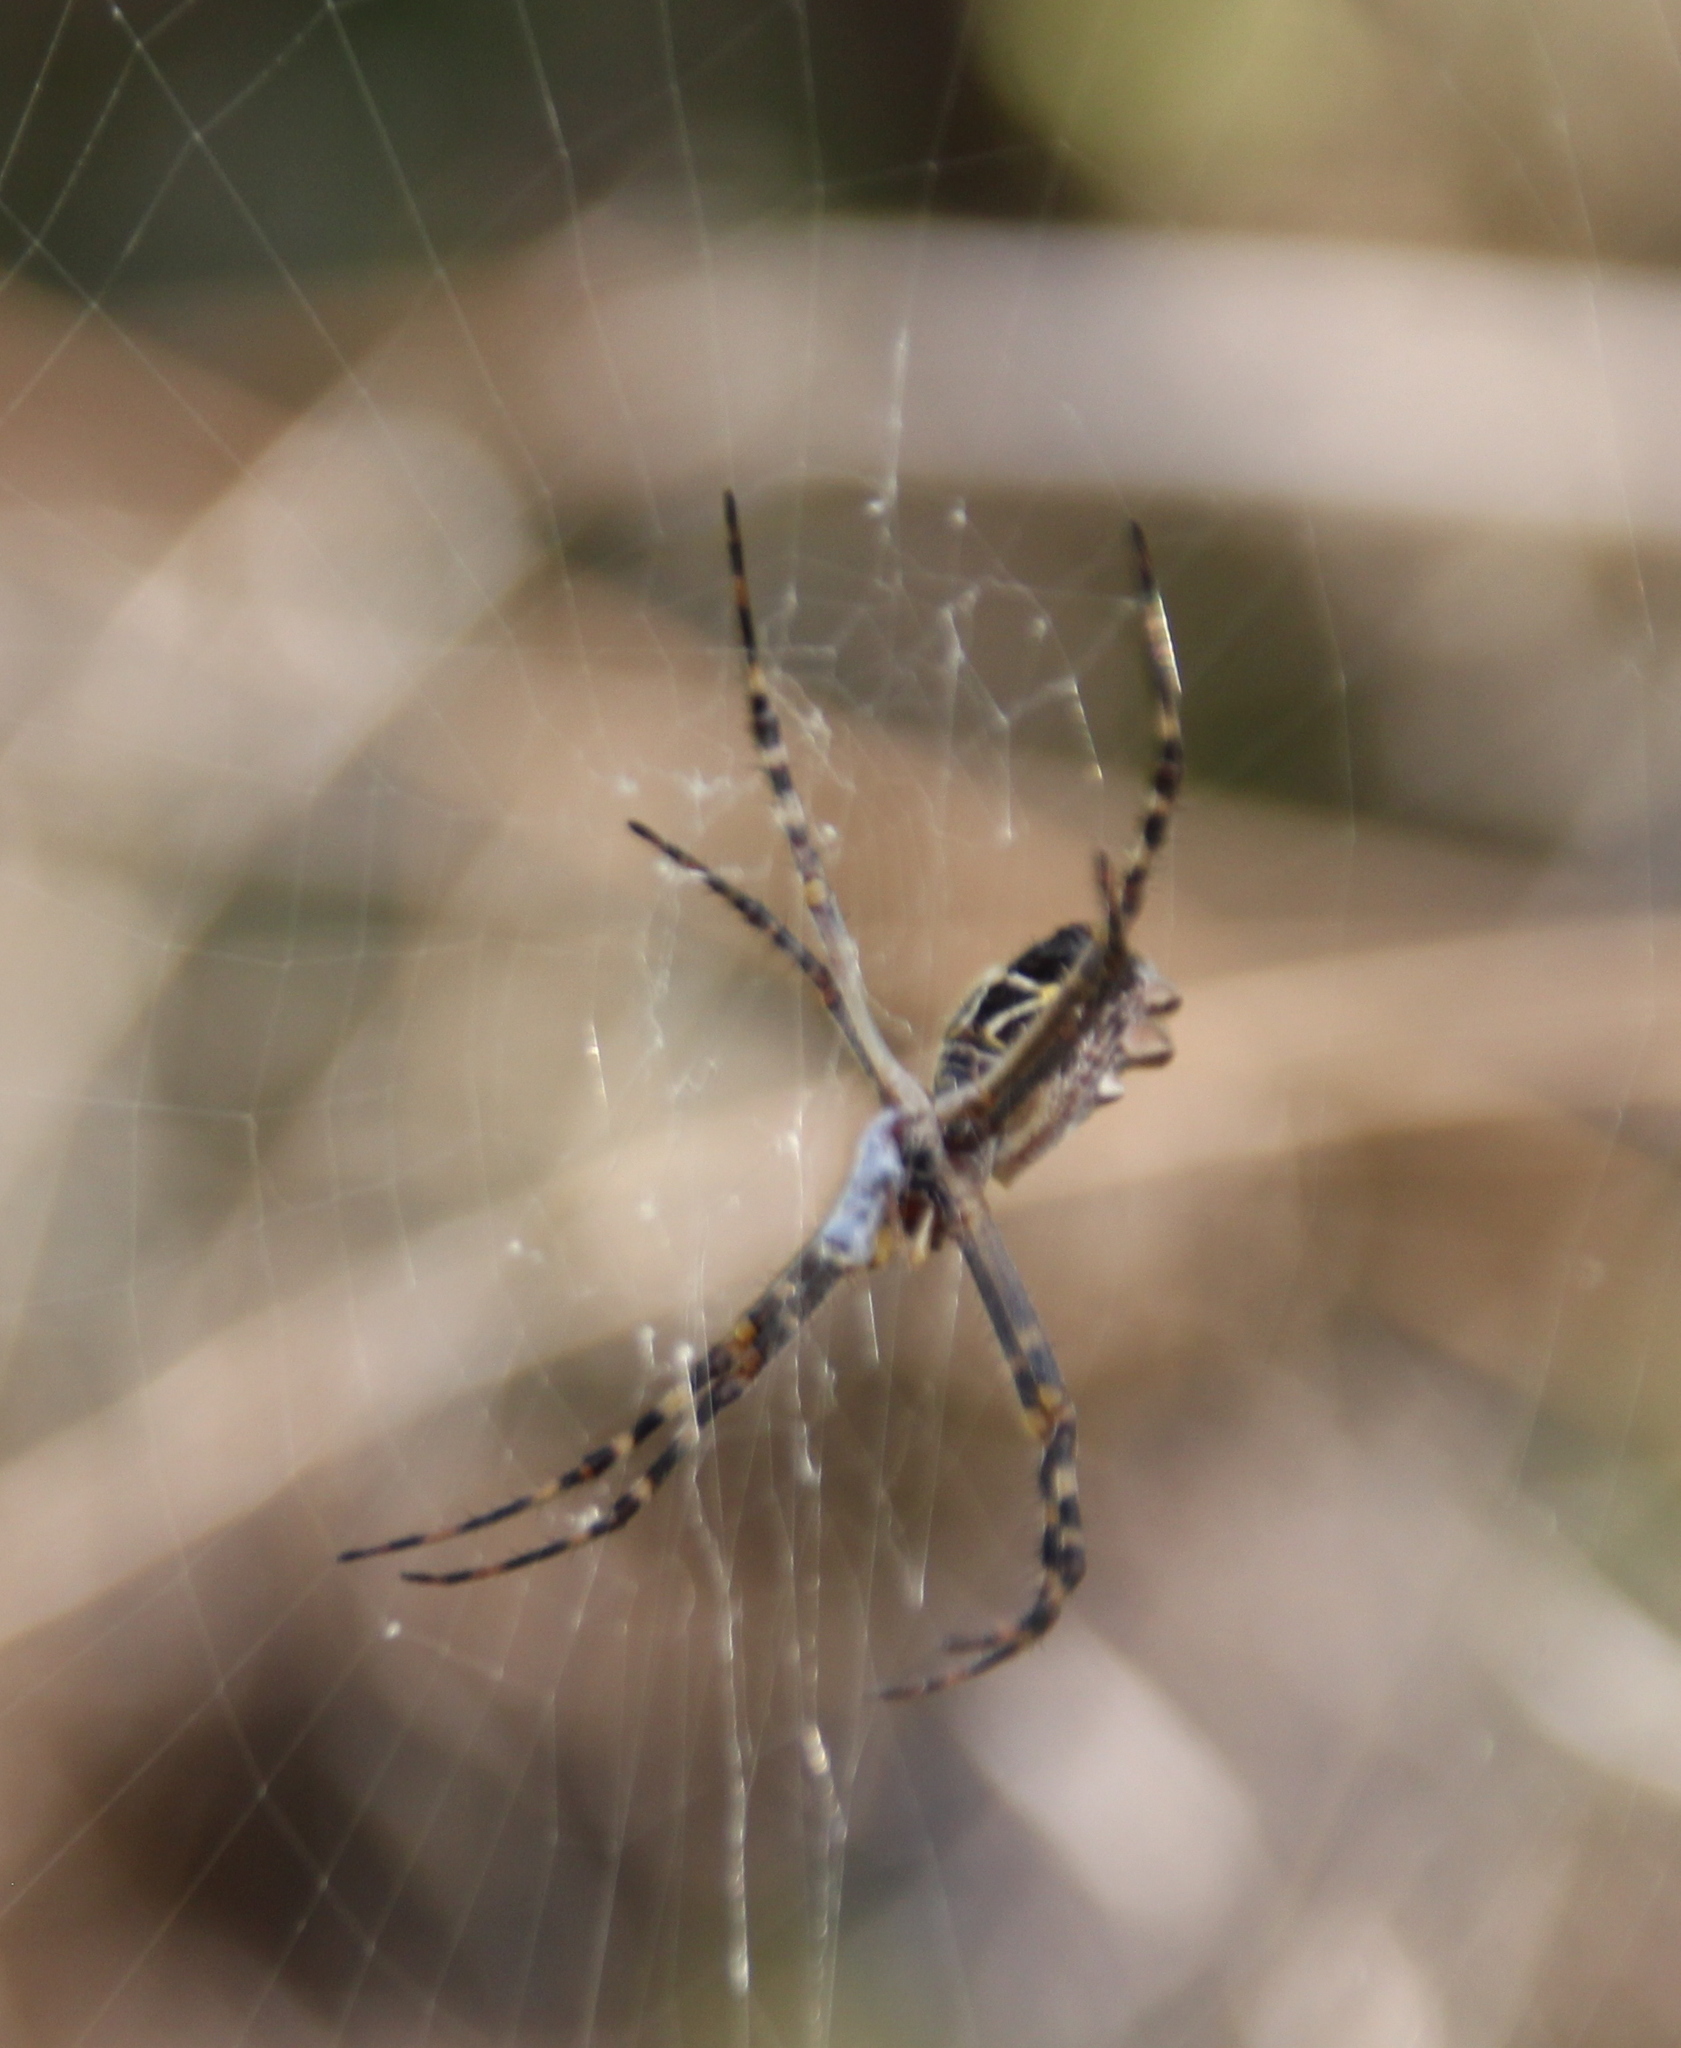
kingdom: Animalia
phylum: Arthropoda
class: Arachnida
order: Araneae
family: Araneidae
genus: Argiope
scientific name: Argiope argentata
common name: Orb weavers
